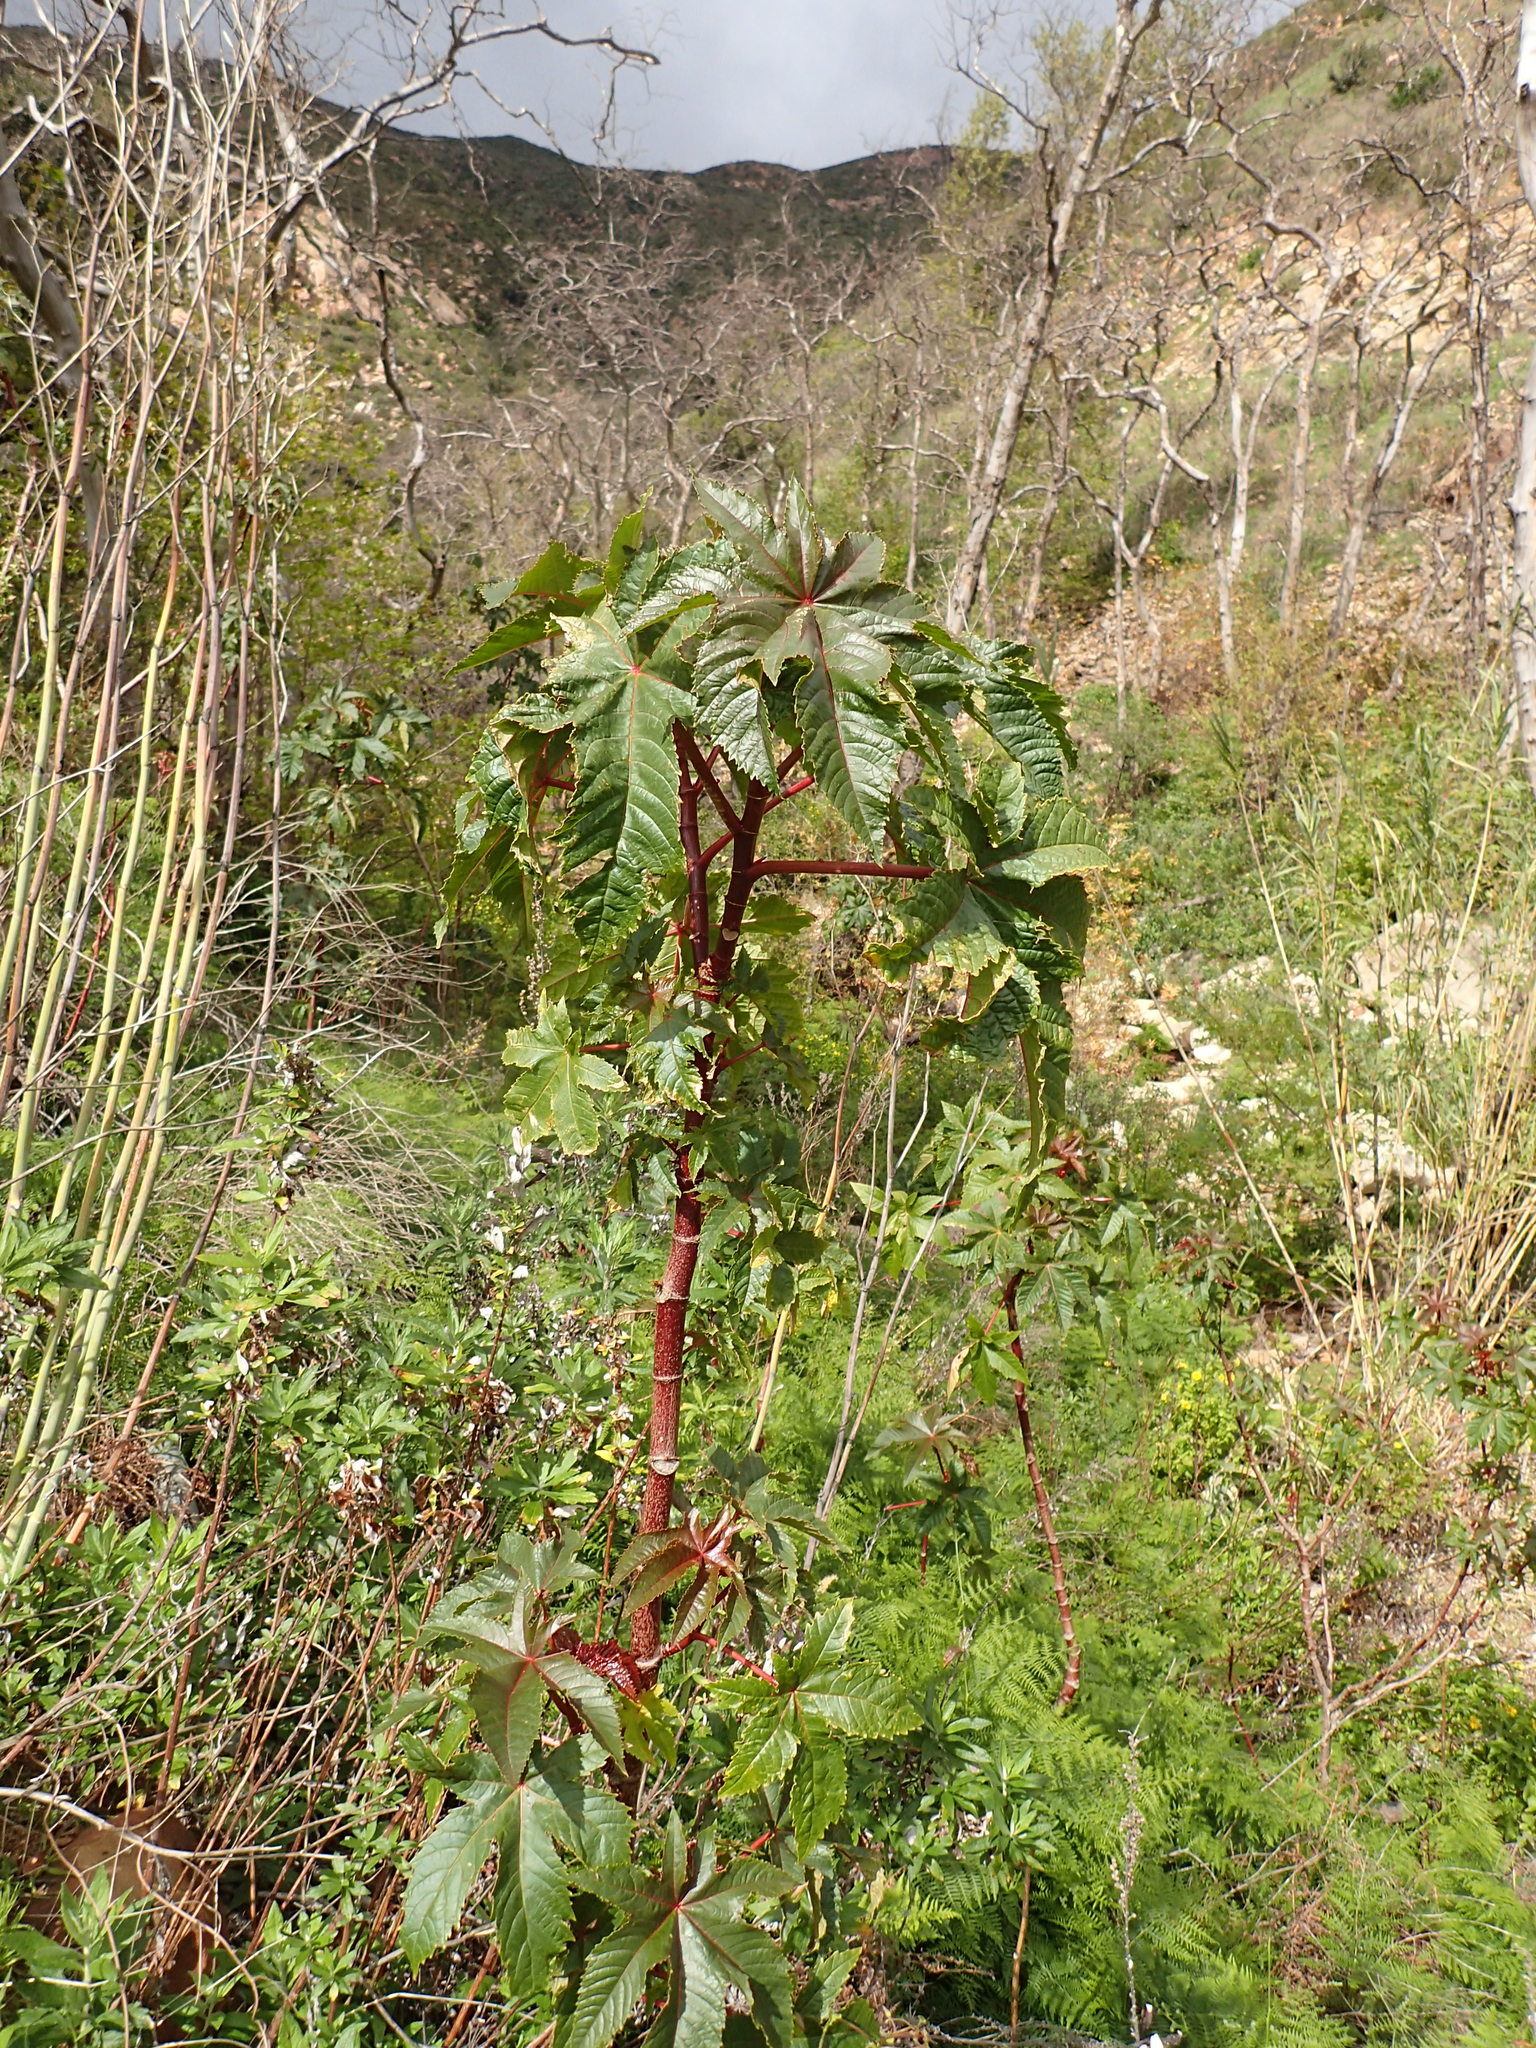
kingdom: Plantae
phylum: Tracheophyta
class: Magnoliopsida
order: Malpighiales
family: Euphorbiaceae
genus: Ricinus
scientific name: Ricinus communis
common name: Castor-oil-plant
